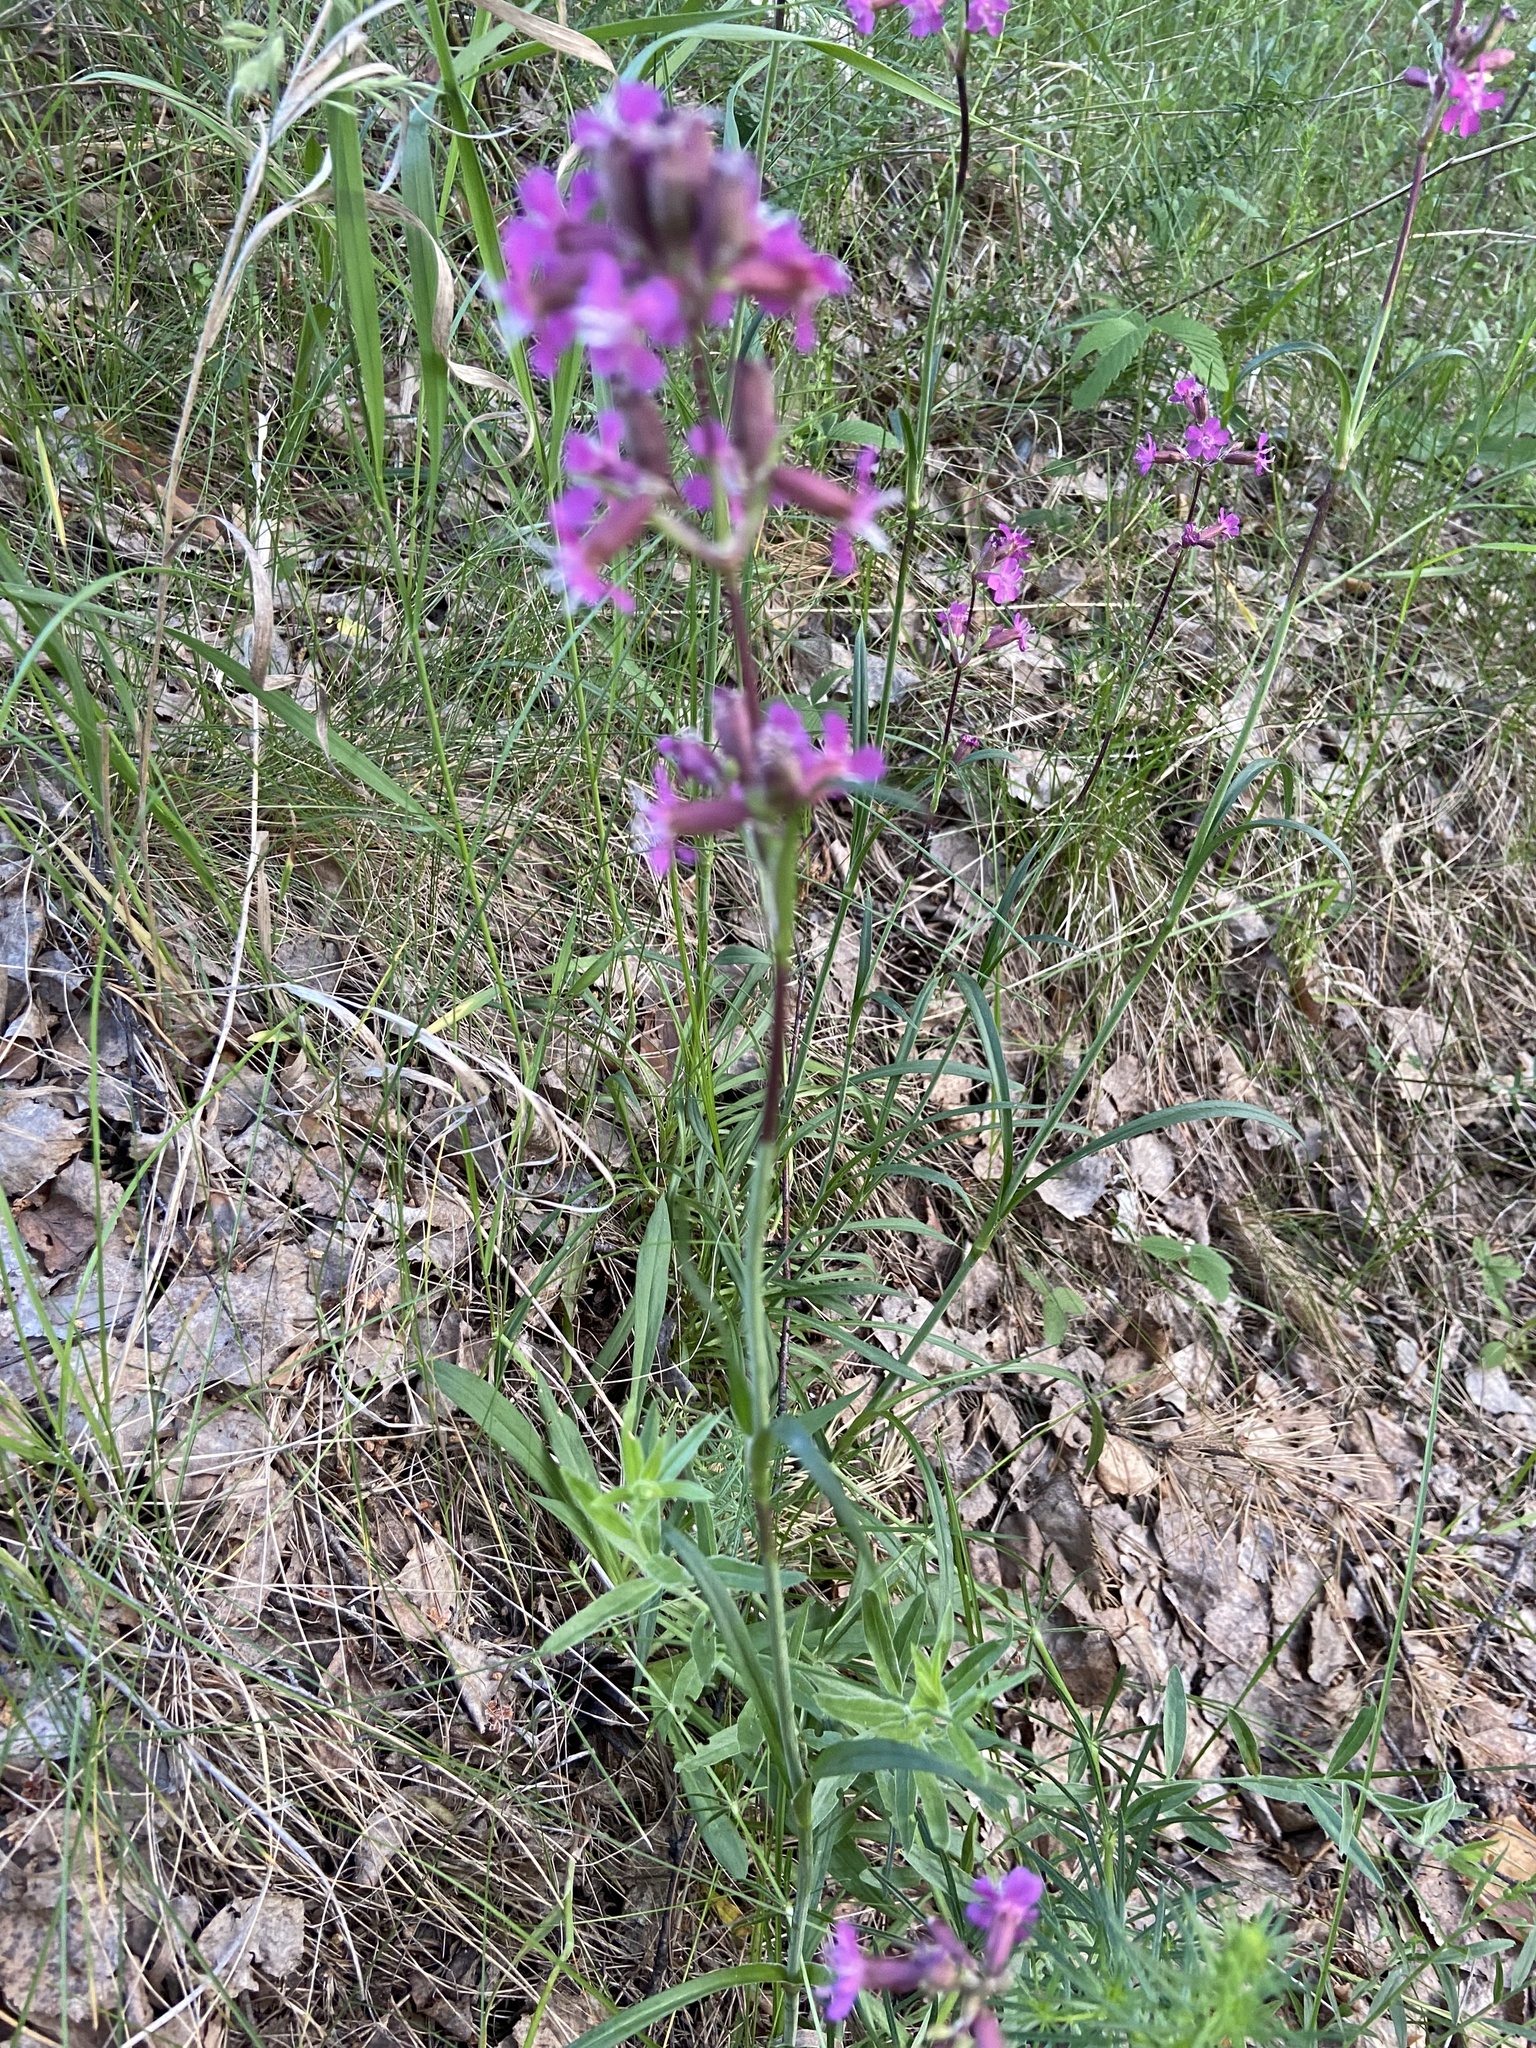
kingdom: Plantae
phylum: Tracheophyta
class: Magnoliopsida
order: Caryophyllales
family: Caryophyllaceae
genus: Viscaria
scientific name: Viscaria vulgaris
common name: Clammy campion
